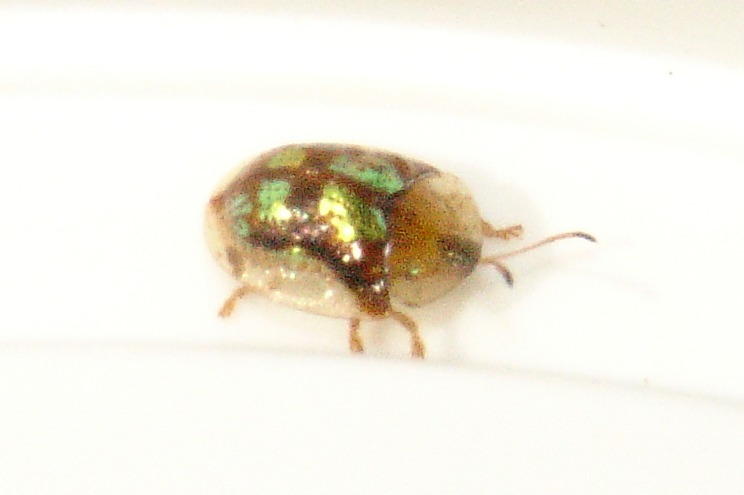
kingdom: Animalia
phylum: Arthropoda
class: Insecta
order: Coleoptera
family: Chrysomelidae
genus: Deloyala
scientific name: Deloyala guttata
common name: Mottled tortoise beetle
